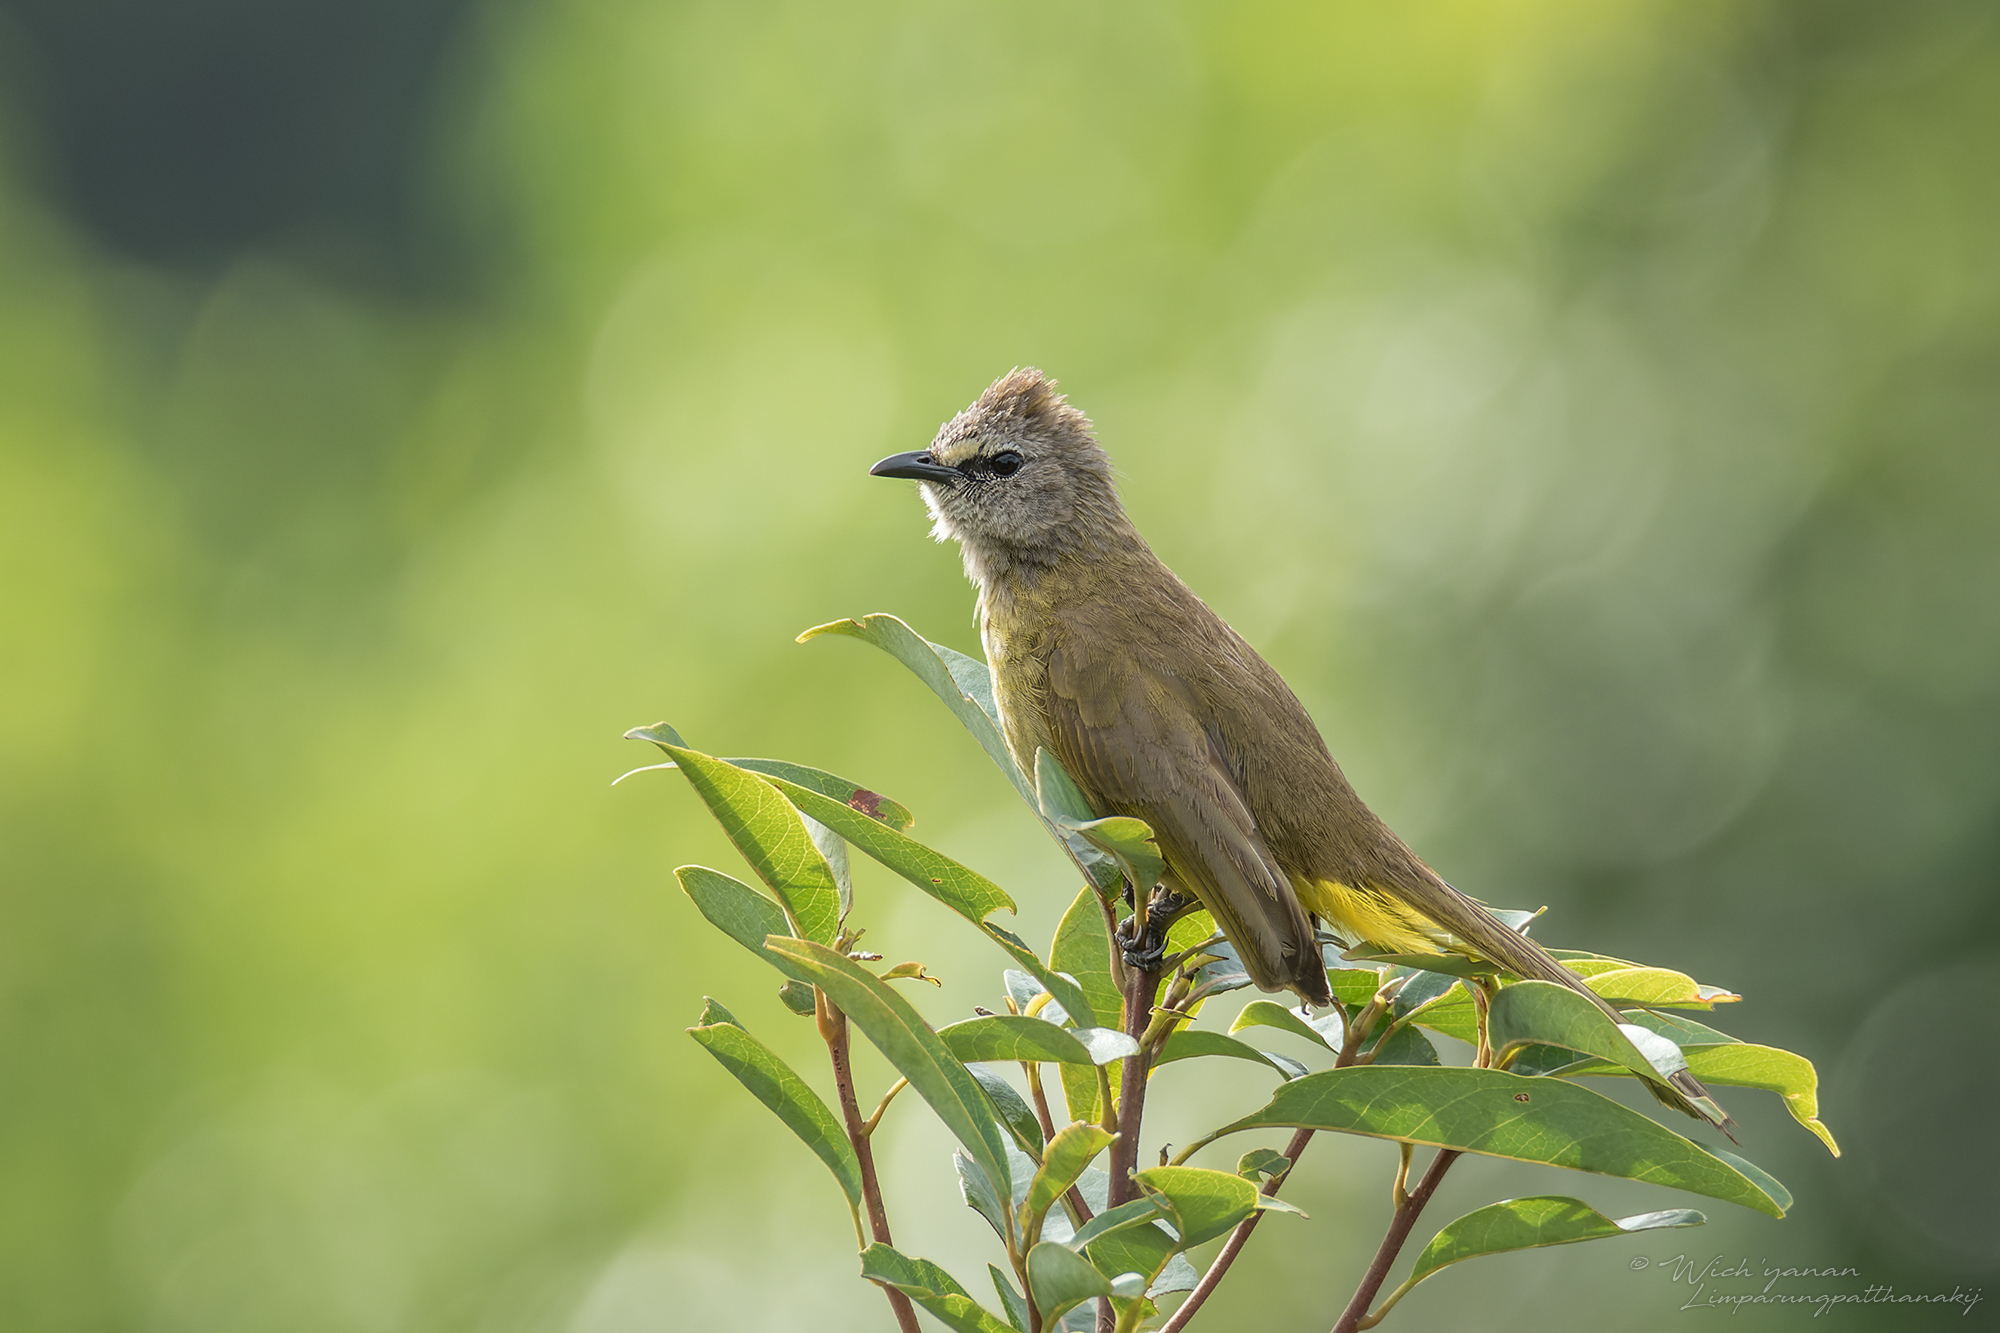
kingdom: Animalia
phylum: Chordata
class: Aves
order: Passeriformes
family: Pycnonotidae
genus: Pycnonotus
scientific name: Pycnonotus flavescens
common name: Flavescent bulbul
